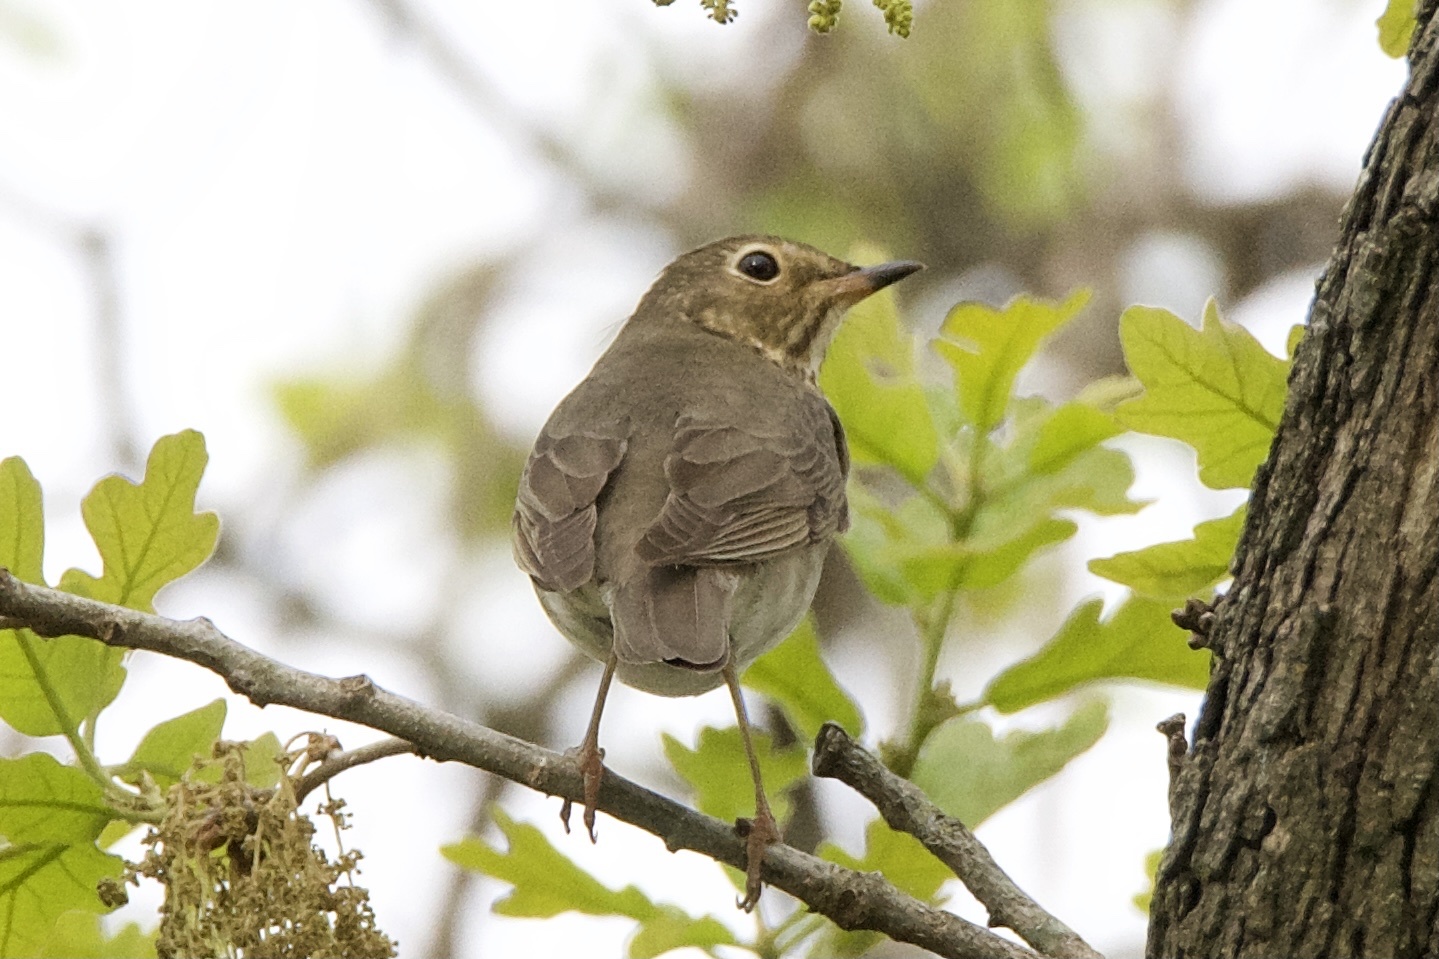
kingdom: Animalia
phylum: Chordata
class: Aves
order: Passeriformes
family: Turdidae
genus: Catharus
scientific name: Catharus ustulatus
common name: Swainson's thrush
